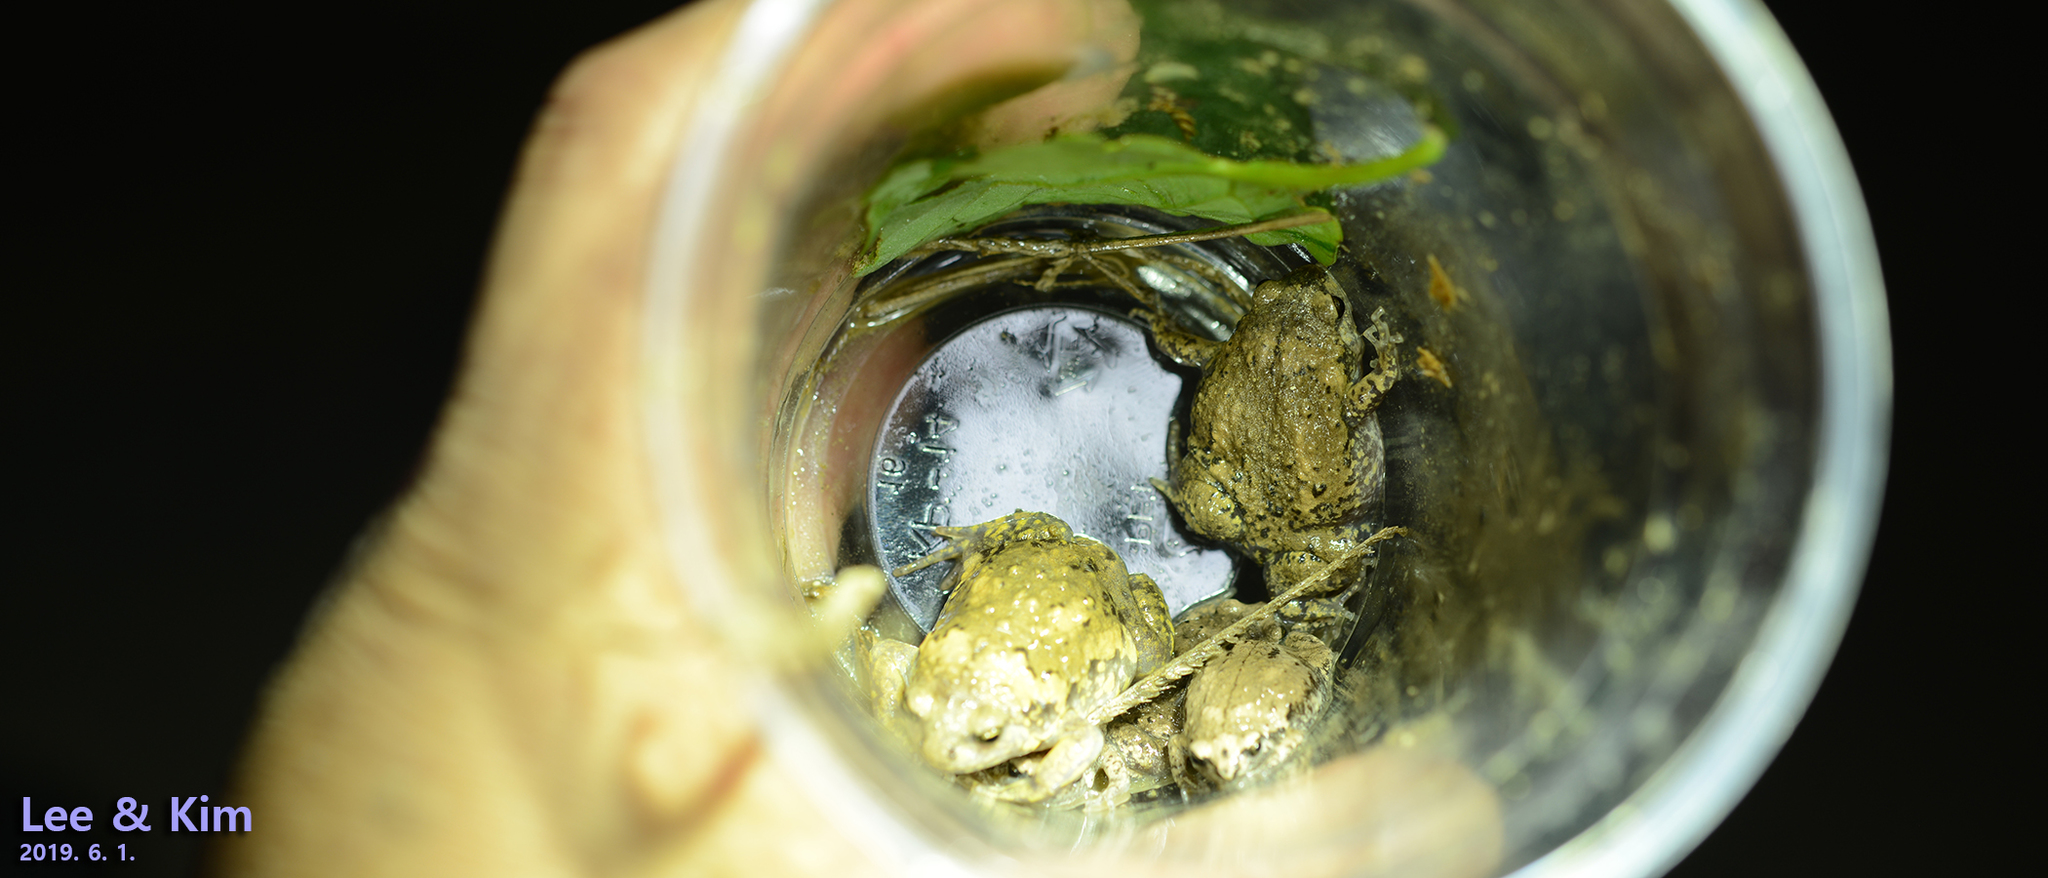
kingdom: Animalia
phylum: Chordata
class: Amphibia
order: Anura
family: Microhylidae
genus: Kaloula
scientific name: Kaloula borealis
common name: Boreal digging frog
